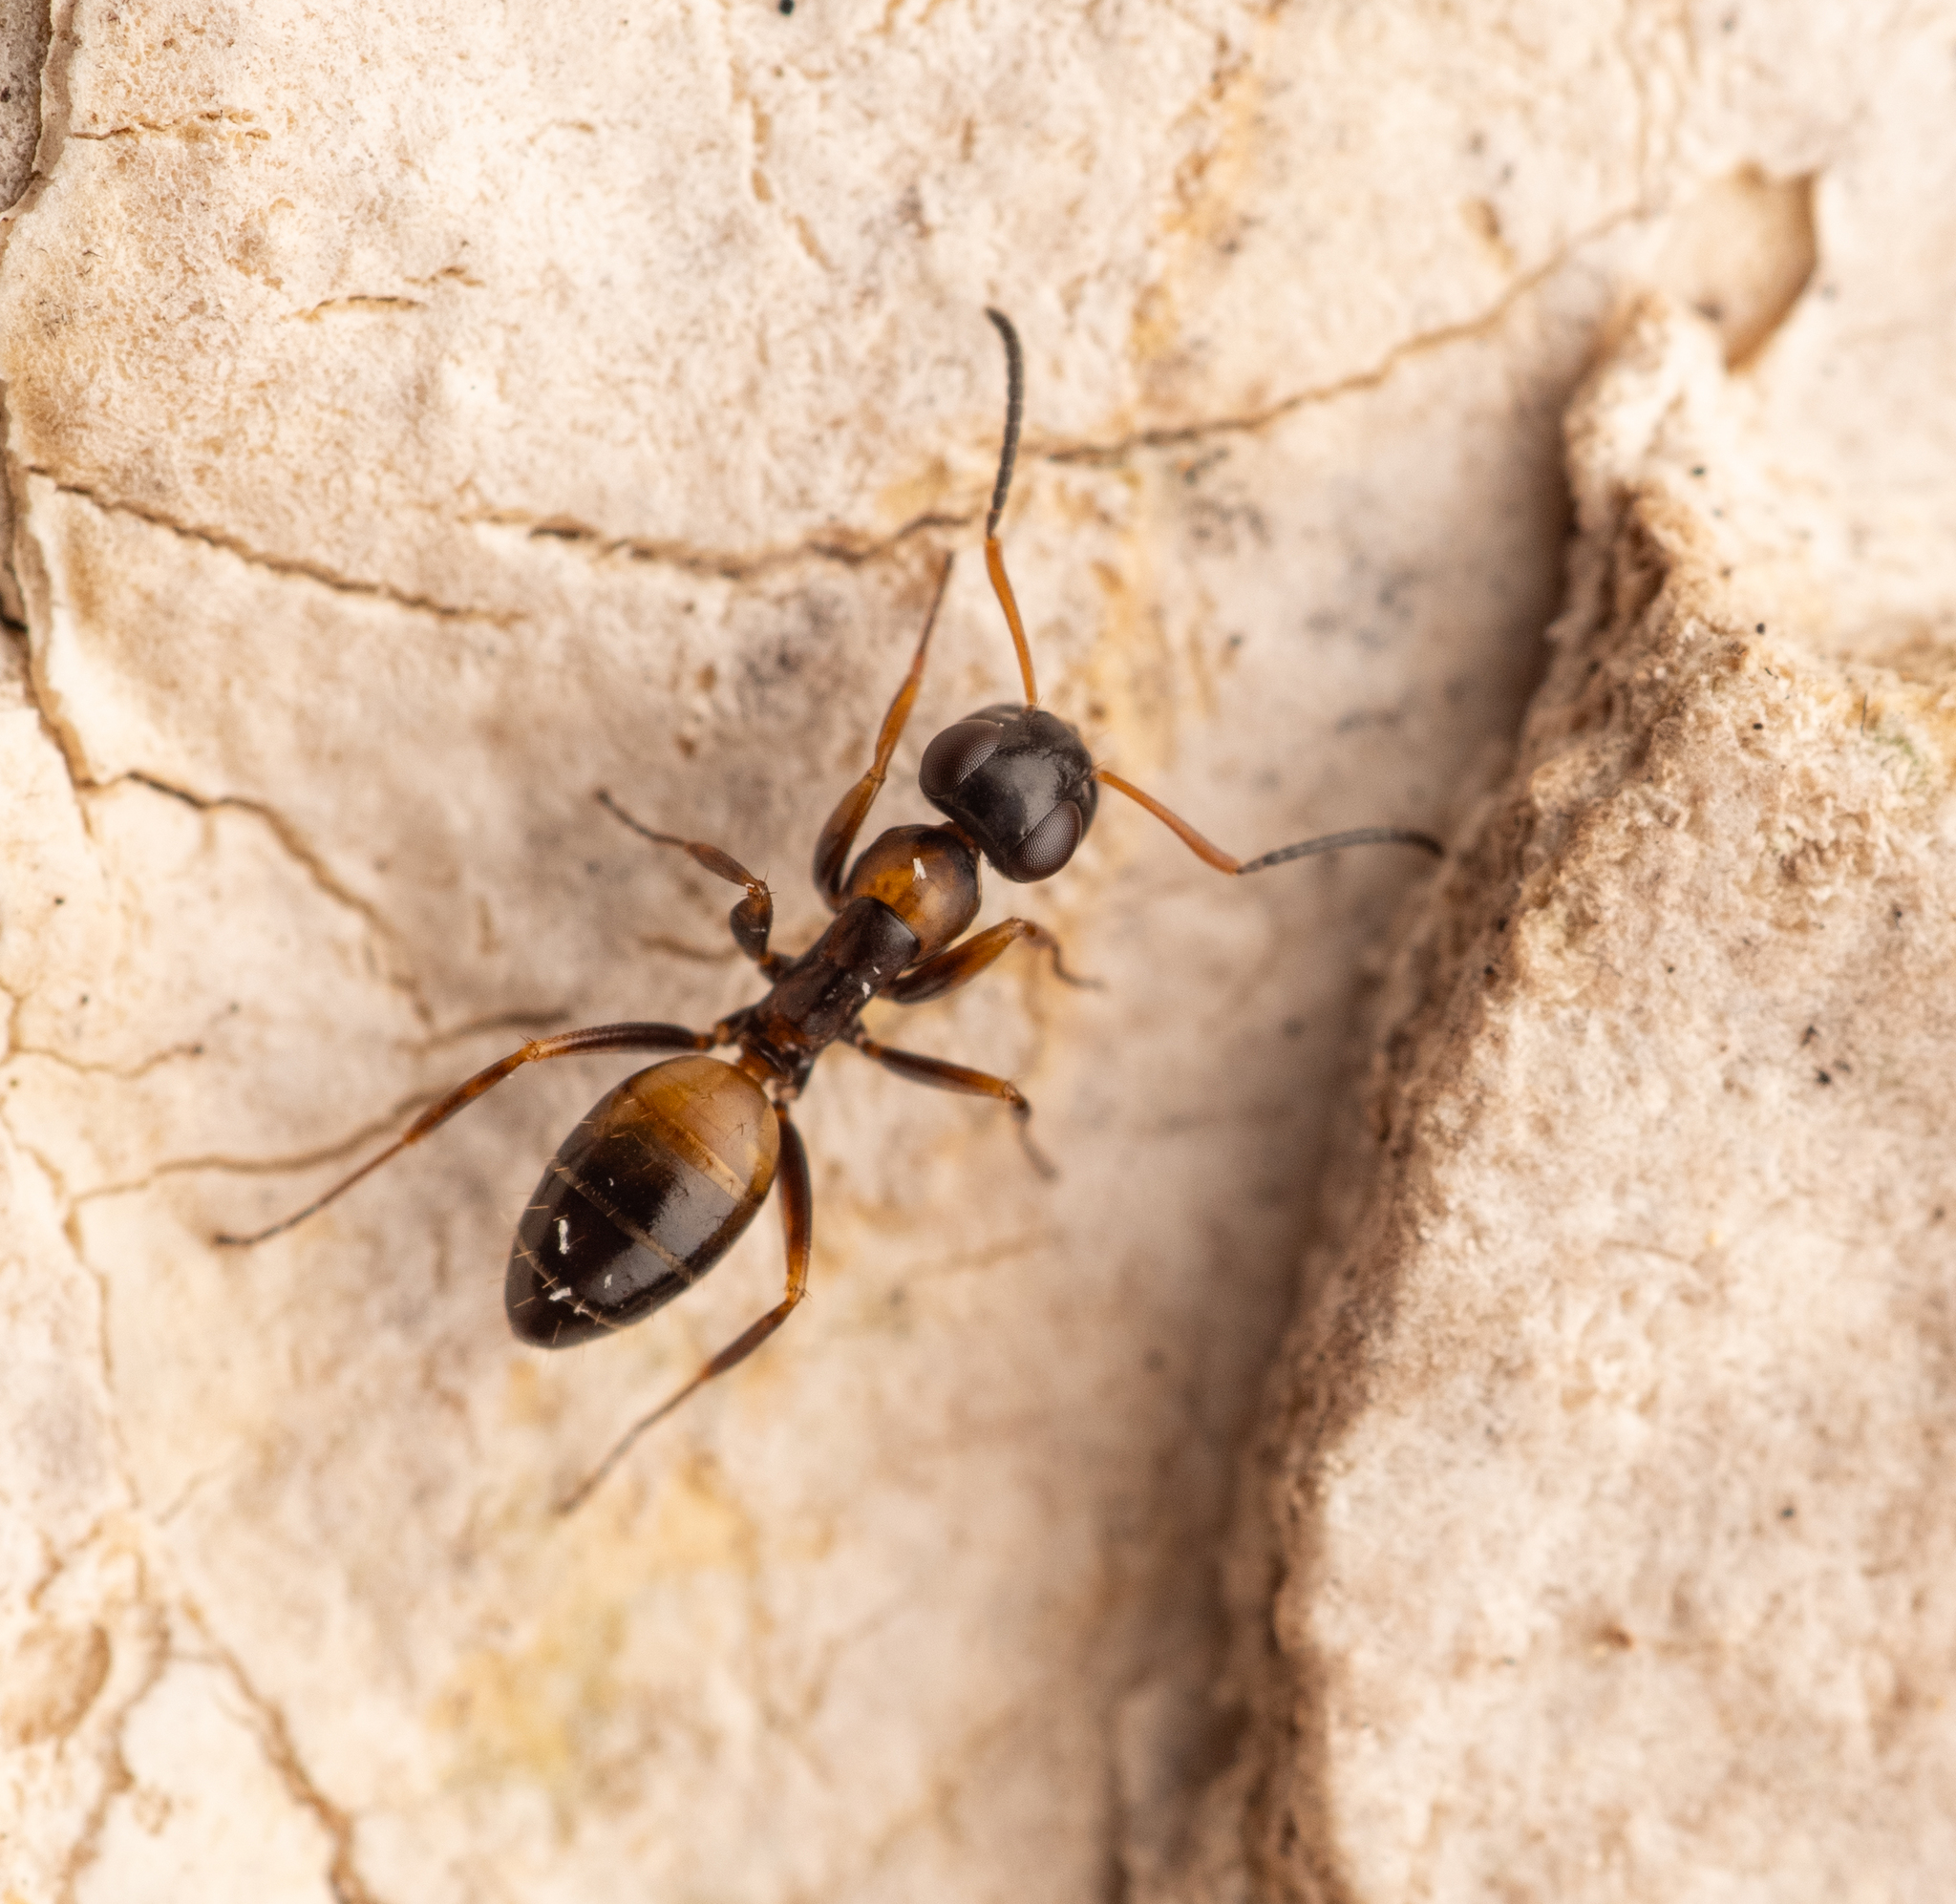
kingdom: Animalia
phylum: Arthropoda
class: Insecta
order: Hymenoptera
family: Formicidae
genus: Opisthopsis
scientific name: Opisthopsis respiciens
